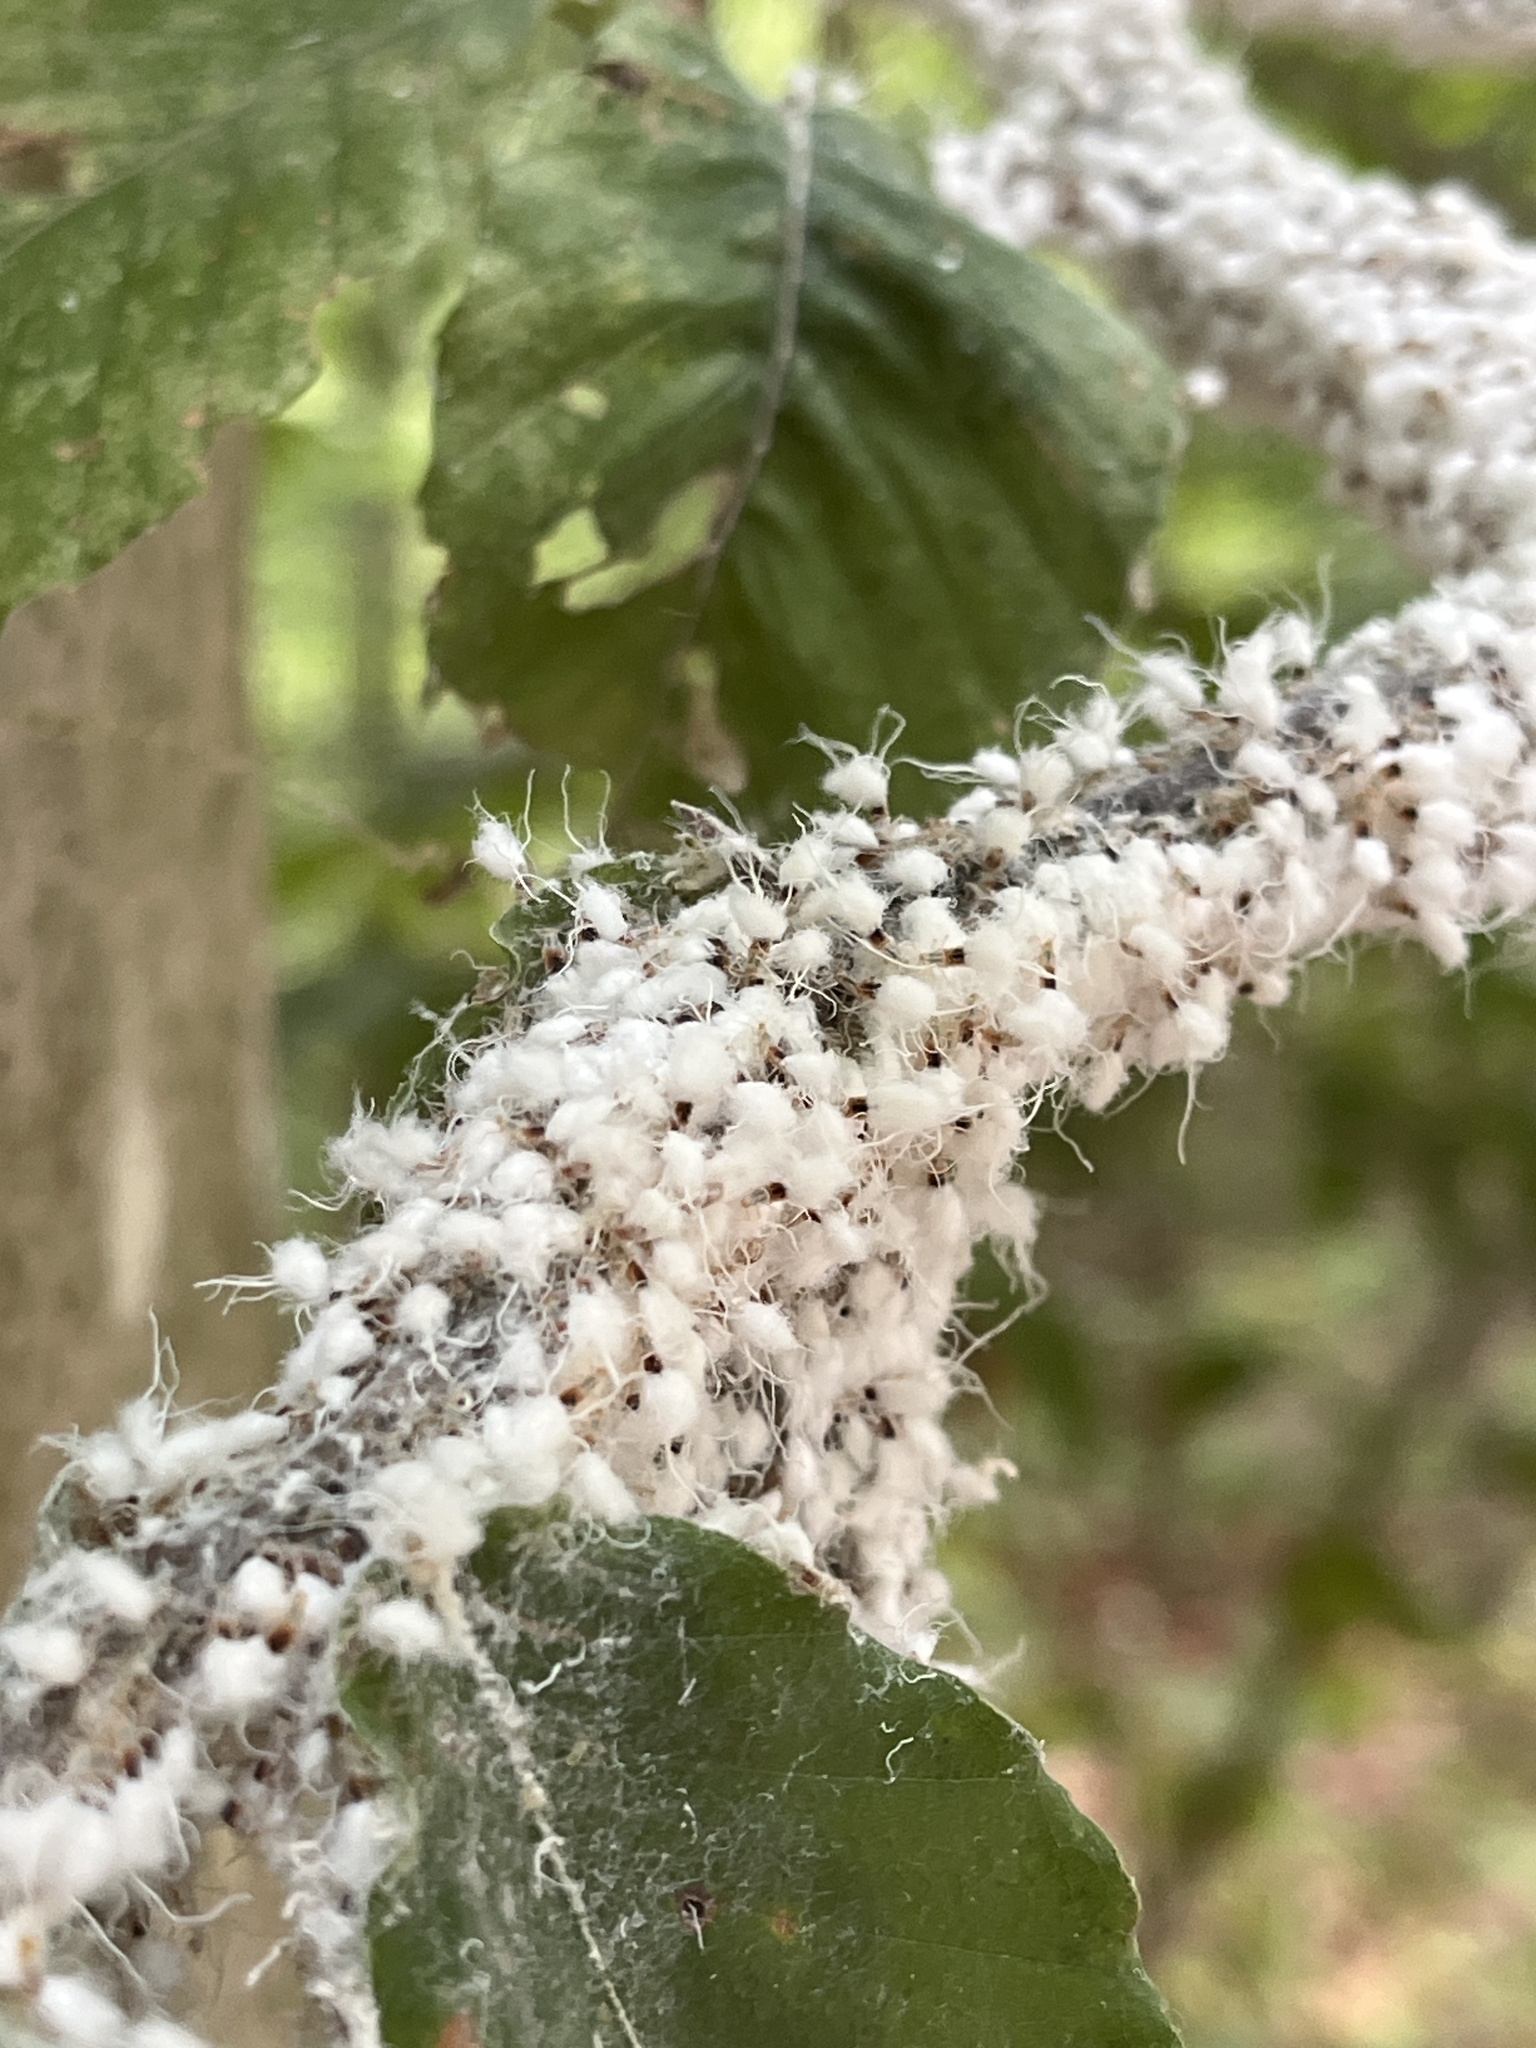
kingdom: Animalia
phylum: Arthropoda
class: Insecta
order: Hemiptera
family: Aphididae
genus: Grylloprociphilus
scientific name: Grylloprociphilus imbricator
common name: Beech blight aphid
